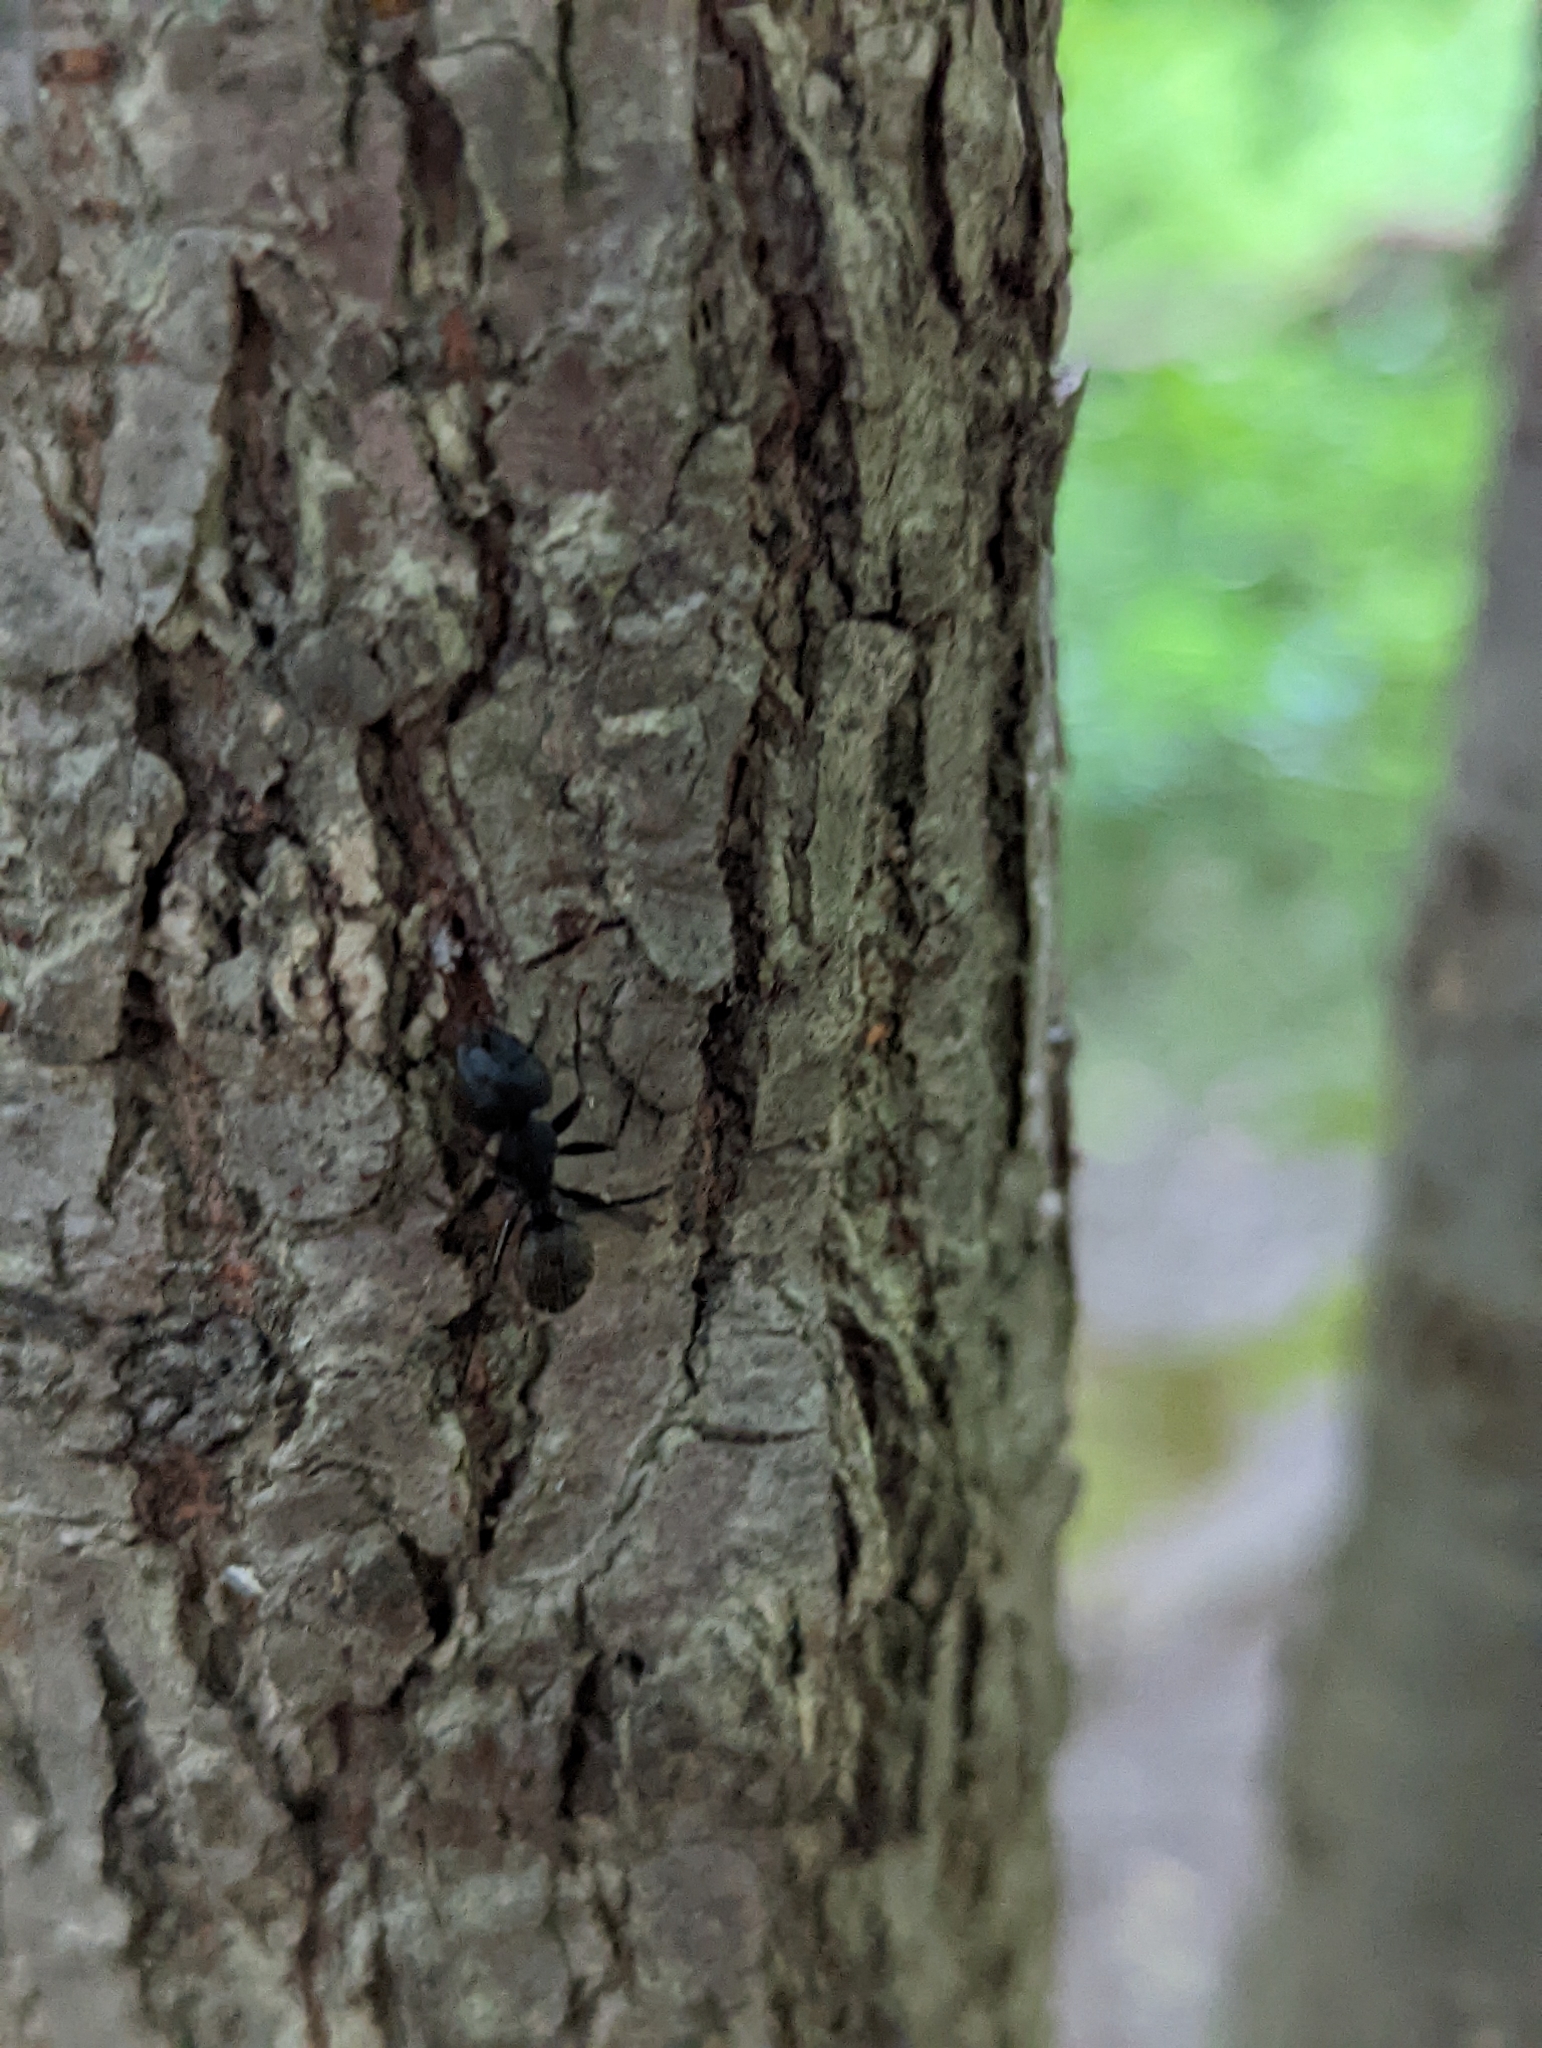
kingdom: Animalia
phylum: Arthropoda
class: Insecta
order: Hymenoptera
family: Formicidae
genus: Camponotus
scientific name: Camponotus pennsylvanicus
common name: Black carpenter ant
